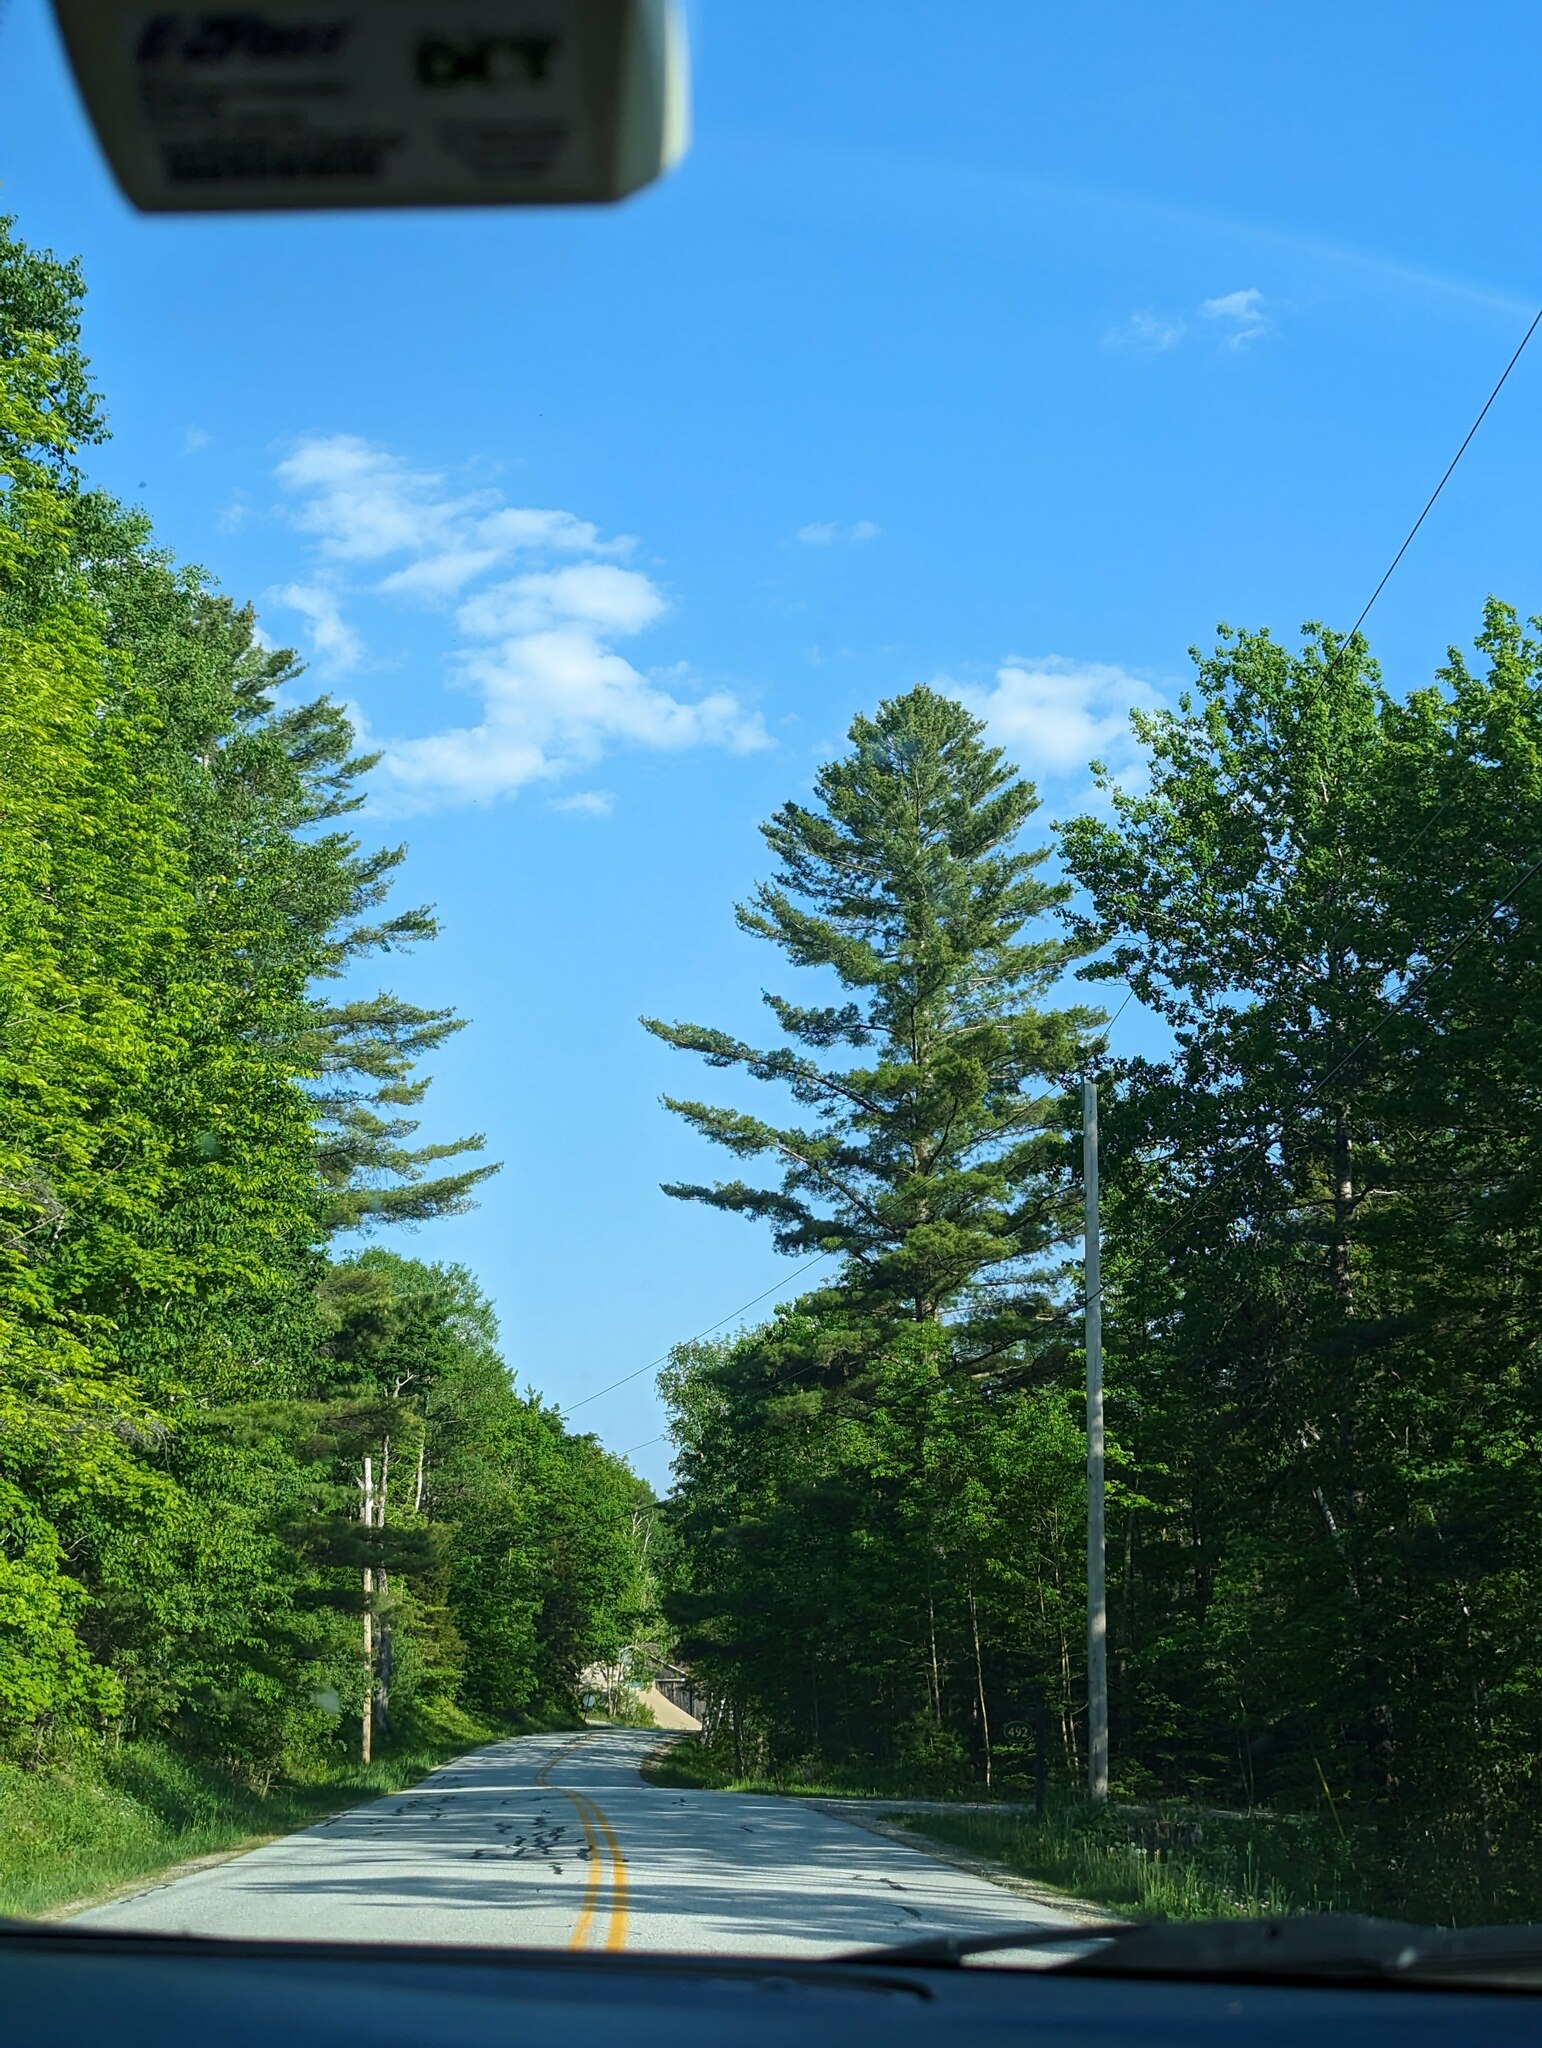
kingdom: Plantae
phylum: Tracheophyta
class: Pinopsida
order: Pinales
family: Pinaceae
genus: Pinus
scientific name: Pinus strobus
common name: Weymouth pine
